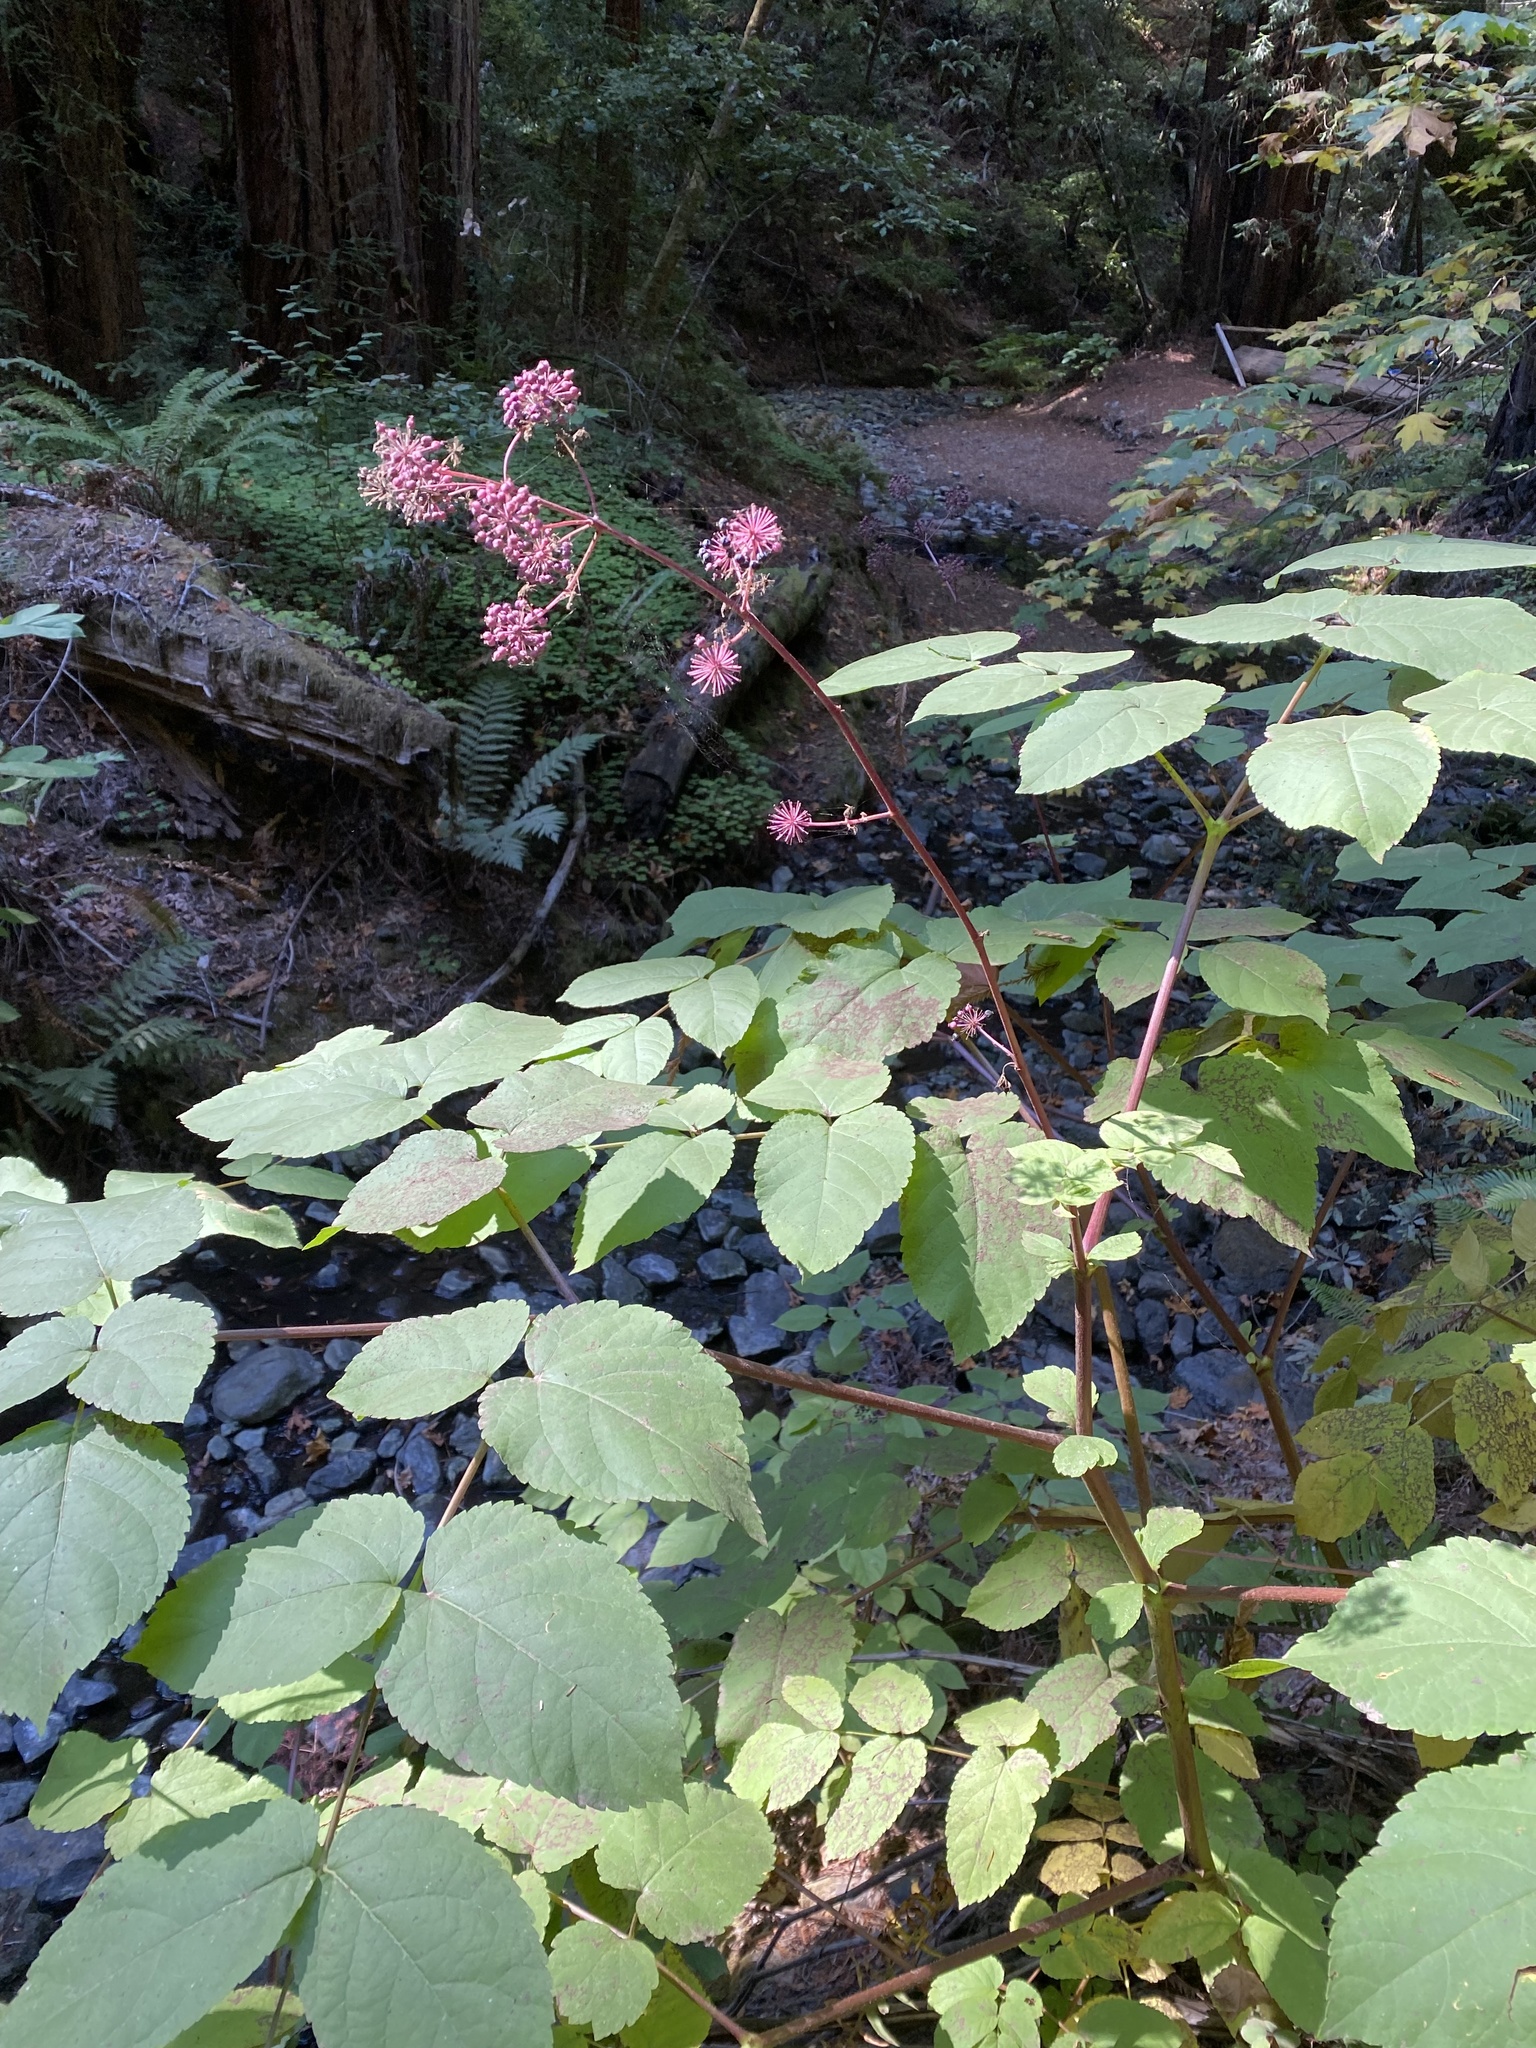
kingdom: Plantae
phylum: Tracheophyta
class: Magnoliopsida
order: Apiales
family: Araliaceae
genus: Aralia
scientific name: Aralia californica
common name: California-ginseng
